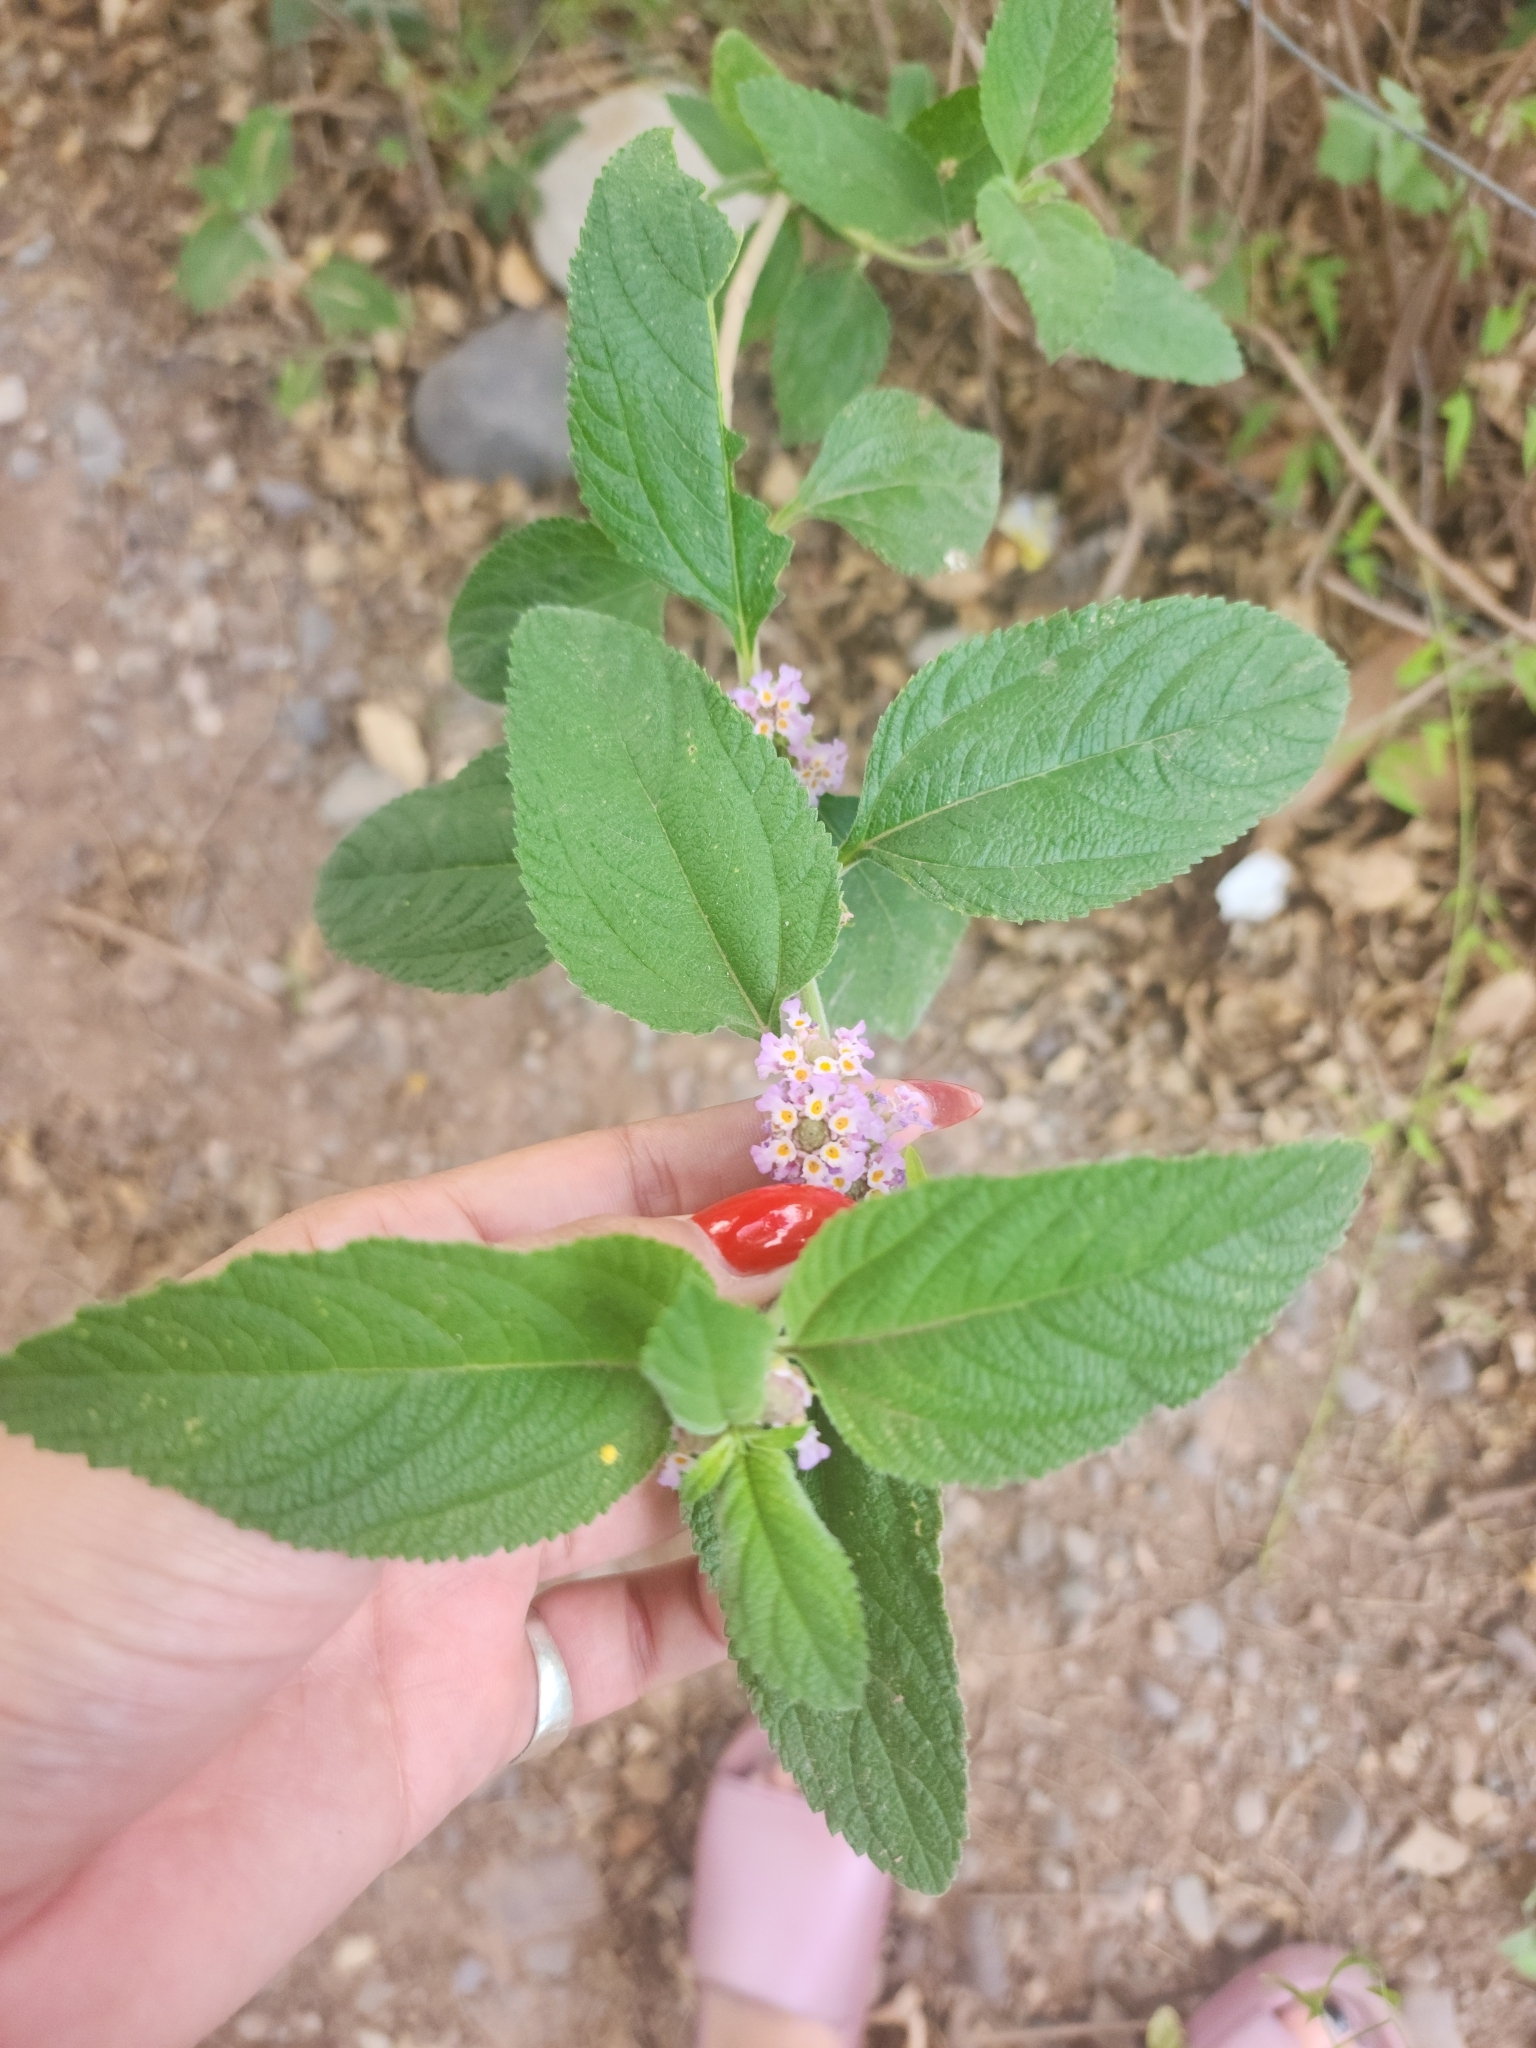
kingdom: Plantae
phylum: Tracheophyta
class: Magnoliopsida
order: Lamiales
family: Verbenaceae
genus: Lippia
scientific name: Lippia alba
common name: Bushy matgrass
